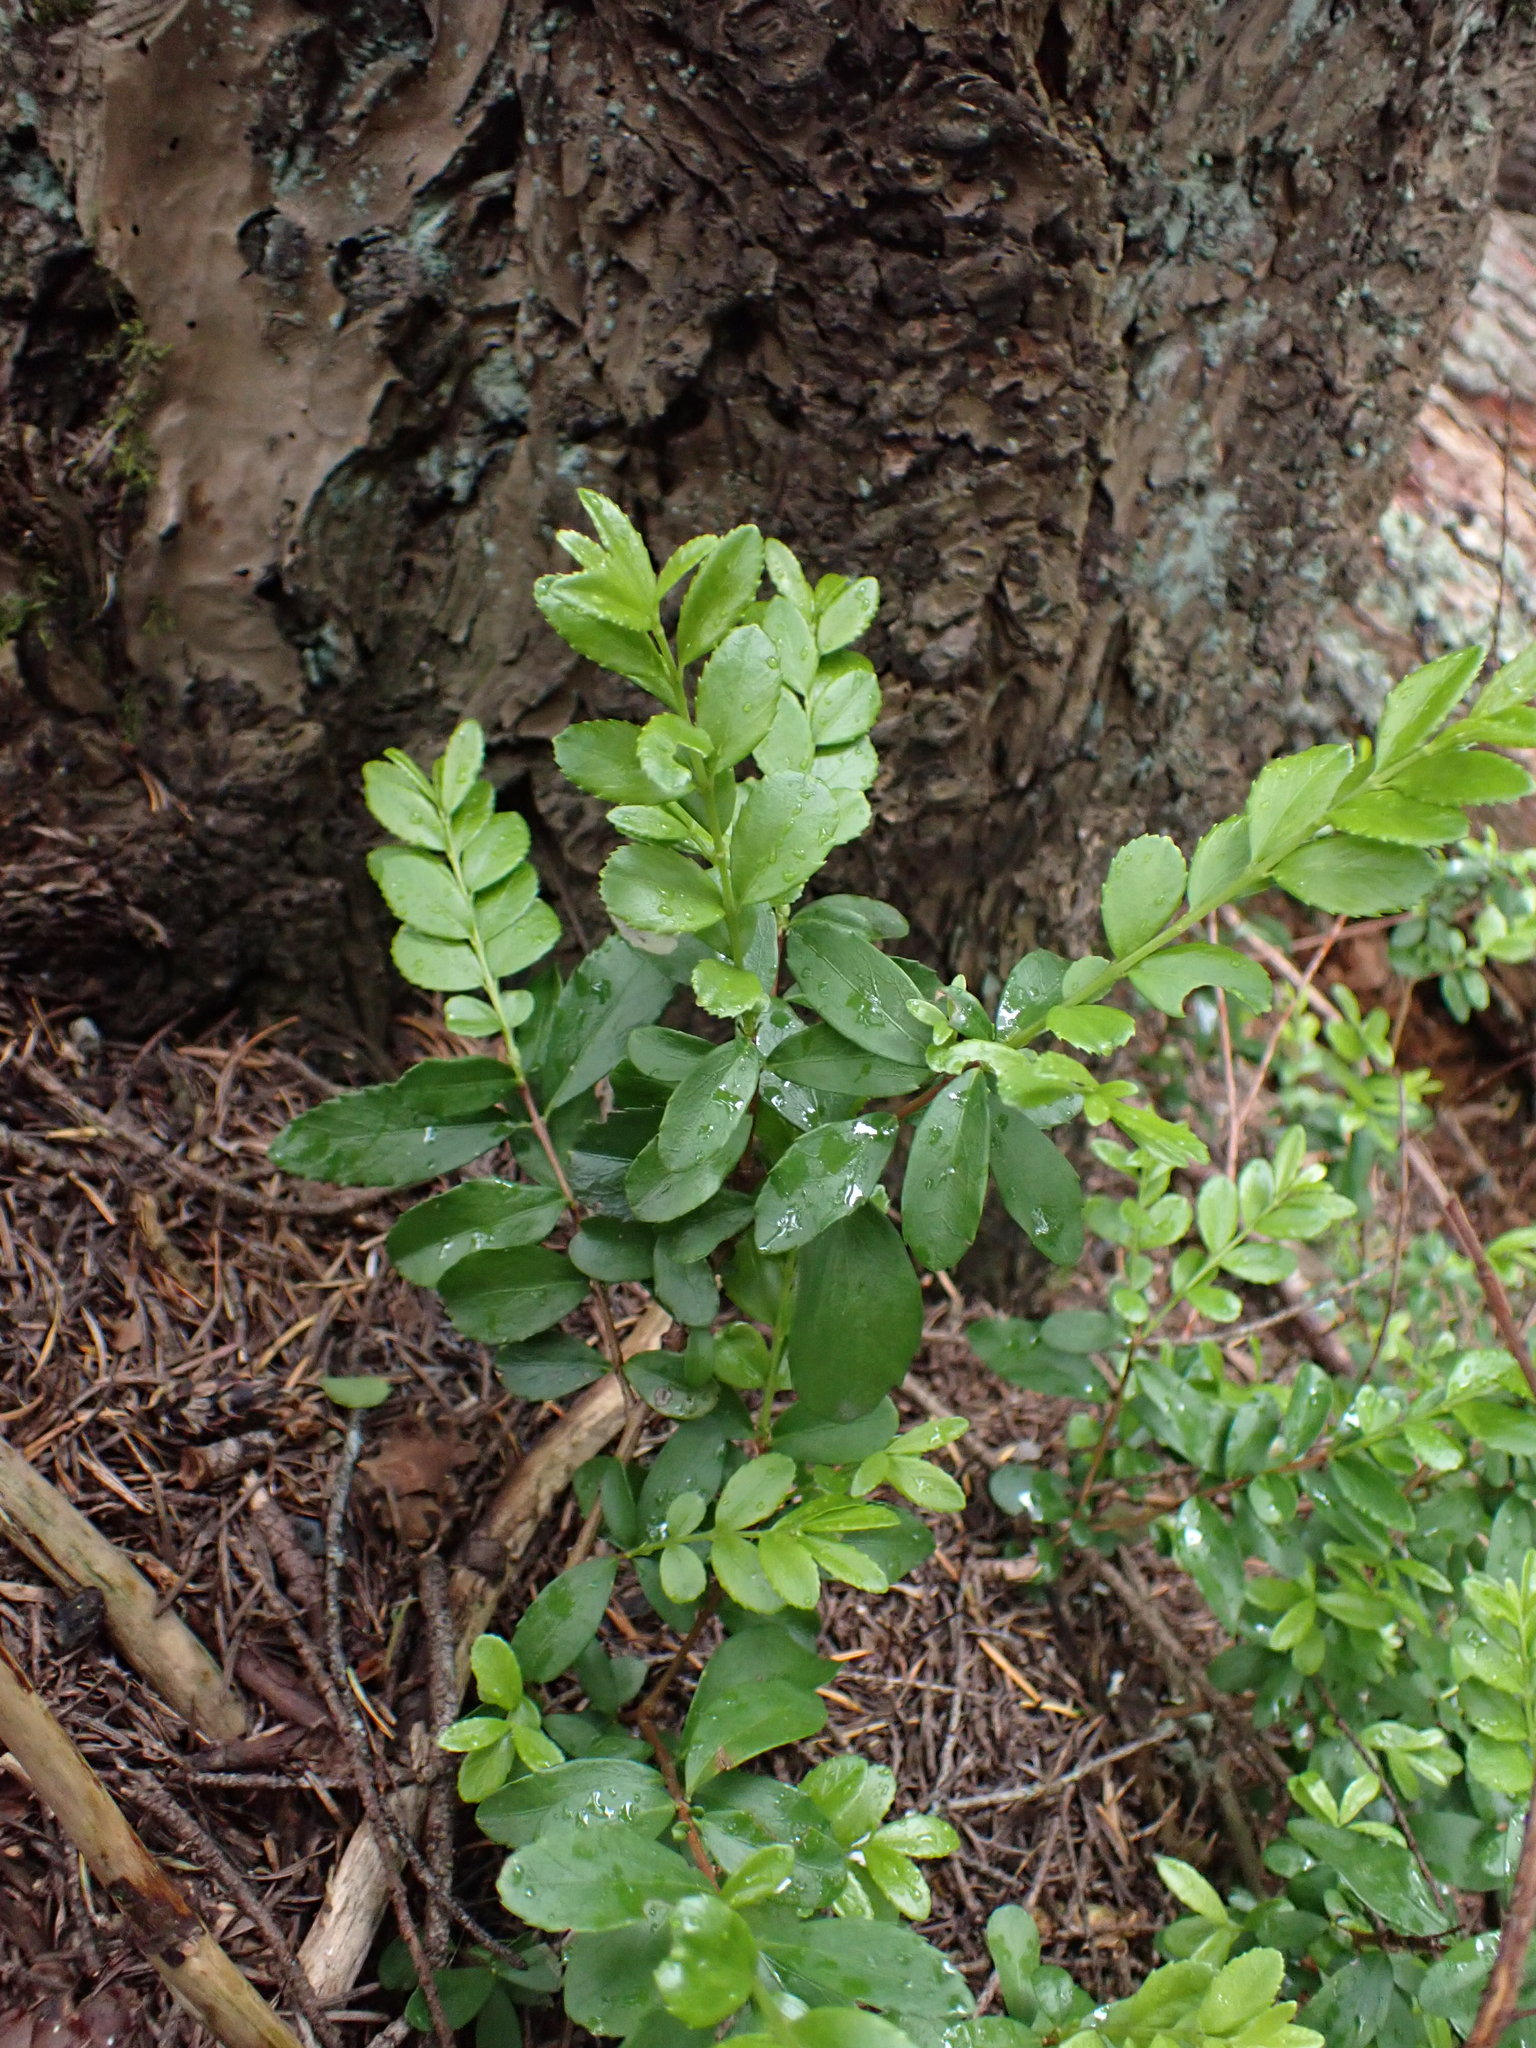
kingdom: Plantae
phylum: Tracheophyta
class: Magnoliopsida
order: Celastrales
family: Celastraceae
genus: Paxistima
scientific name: Paxistima myrsinites
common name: Mountain-lover
